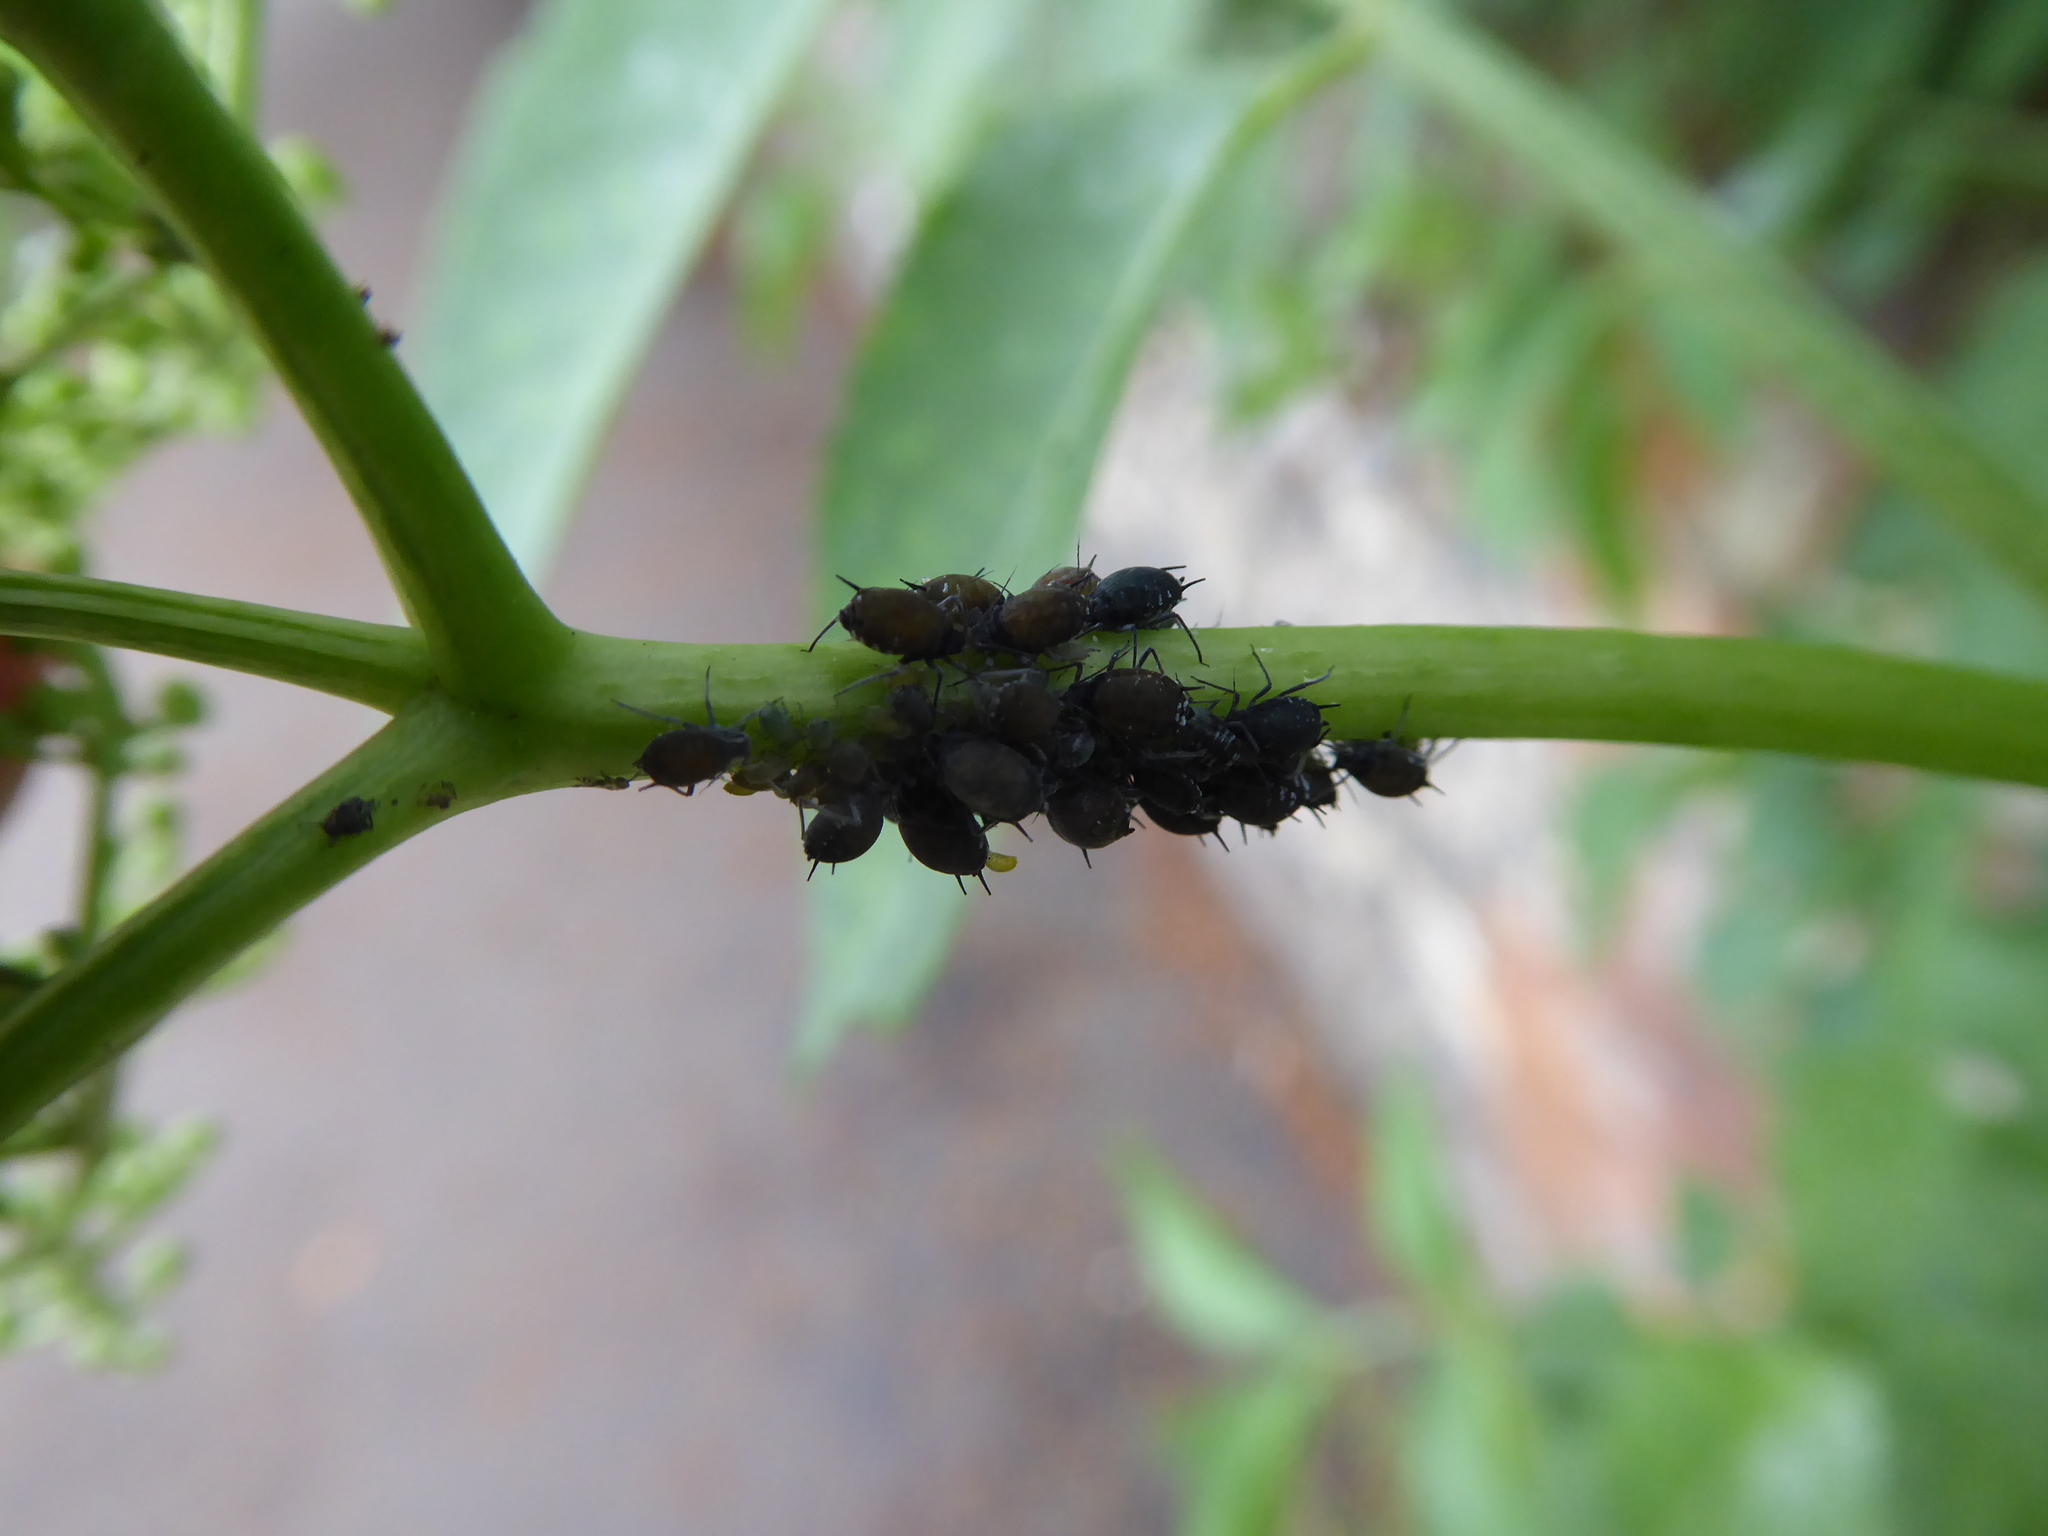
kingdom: Animalia
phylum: Arthropoda
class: Insecta
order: Hemiptera
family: Aphididae
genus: Aphis
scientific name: Aphis sambuci
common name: Elder aphid
